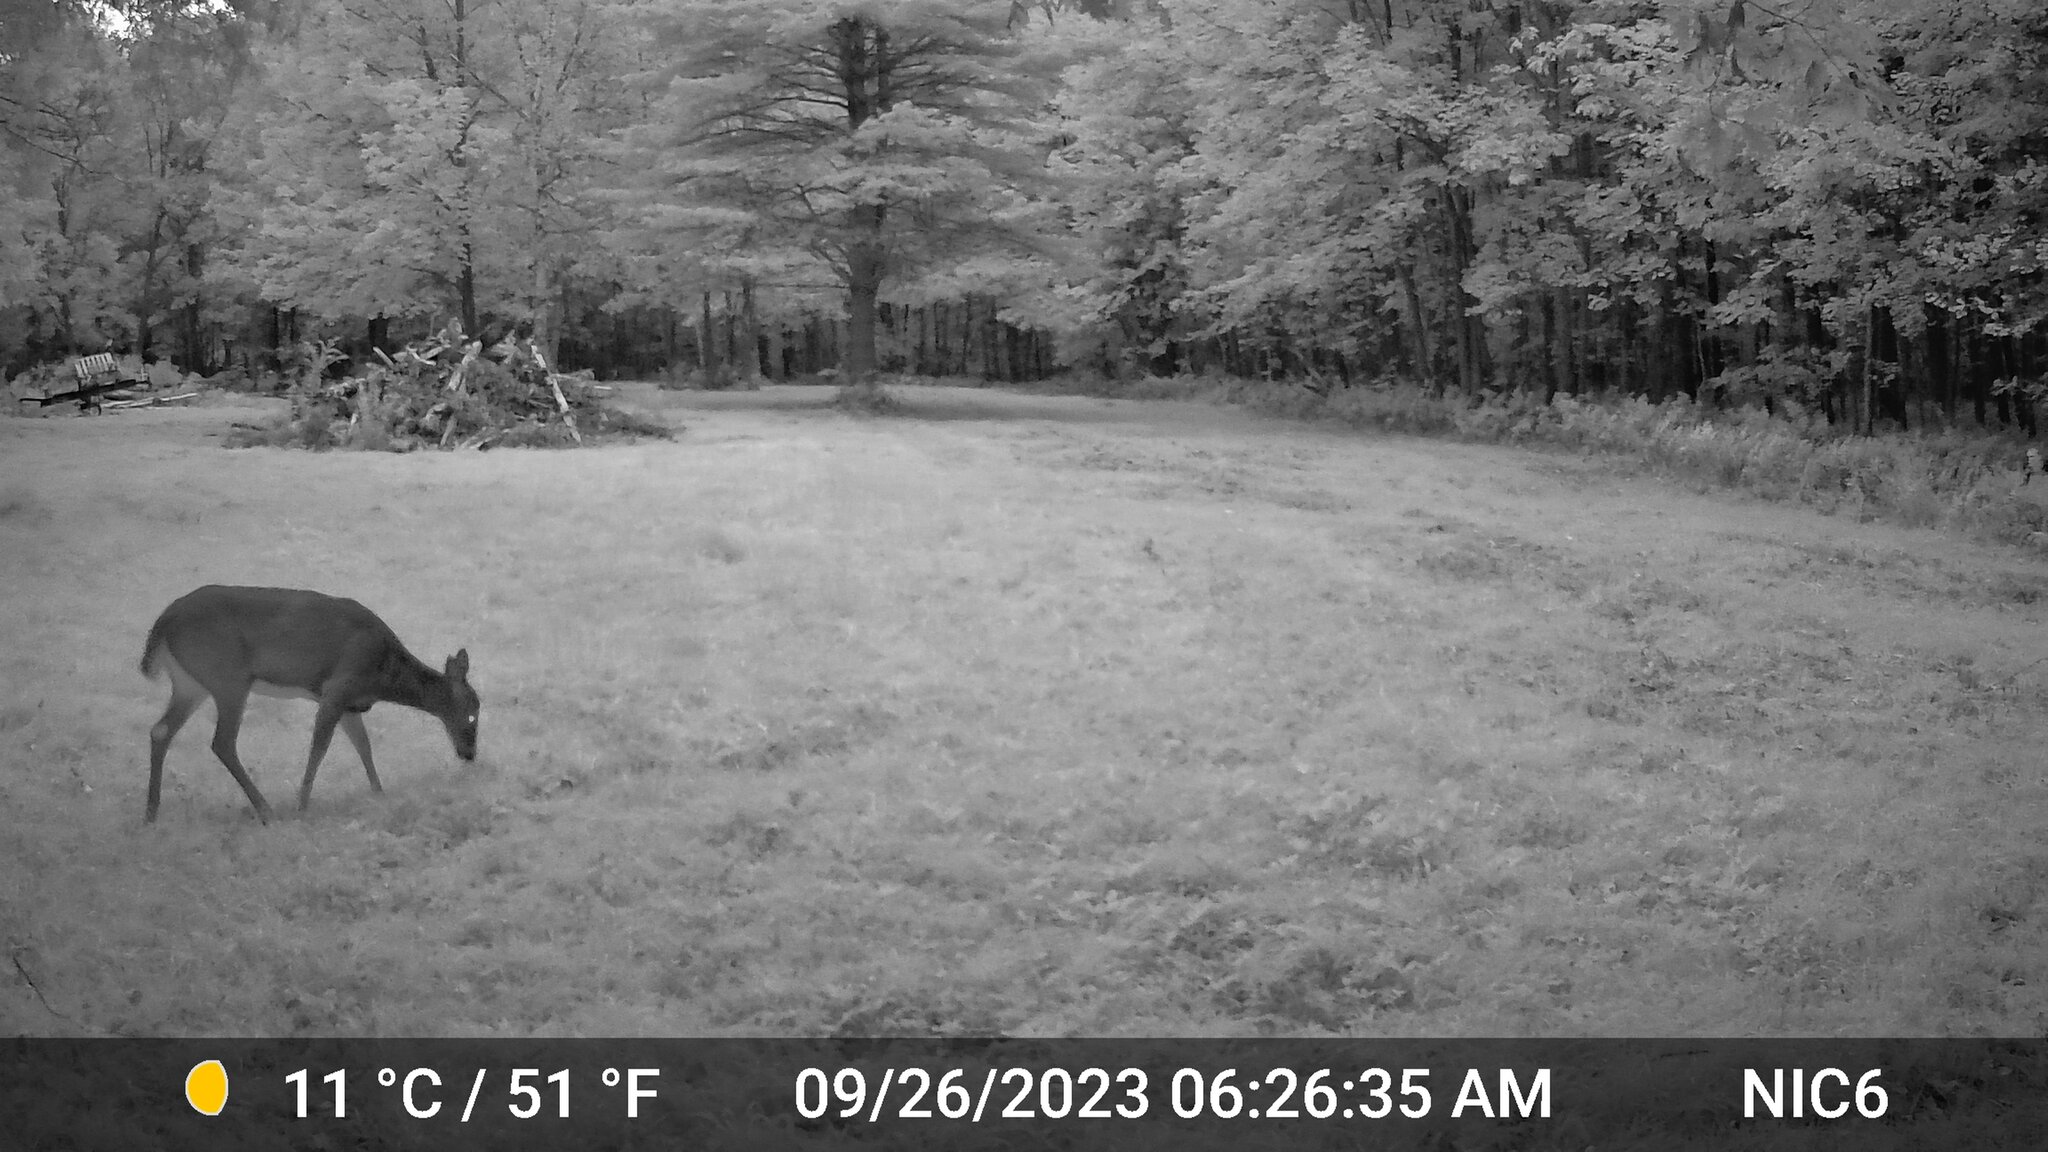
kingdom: Animalia
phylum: Chordata
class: Mammalia
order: Artiodactyla
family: Cervidae
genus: Odocoileus
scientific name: Odocoileus virginianus
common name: White-tailed deer
